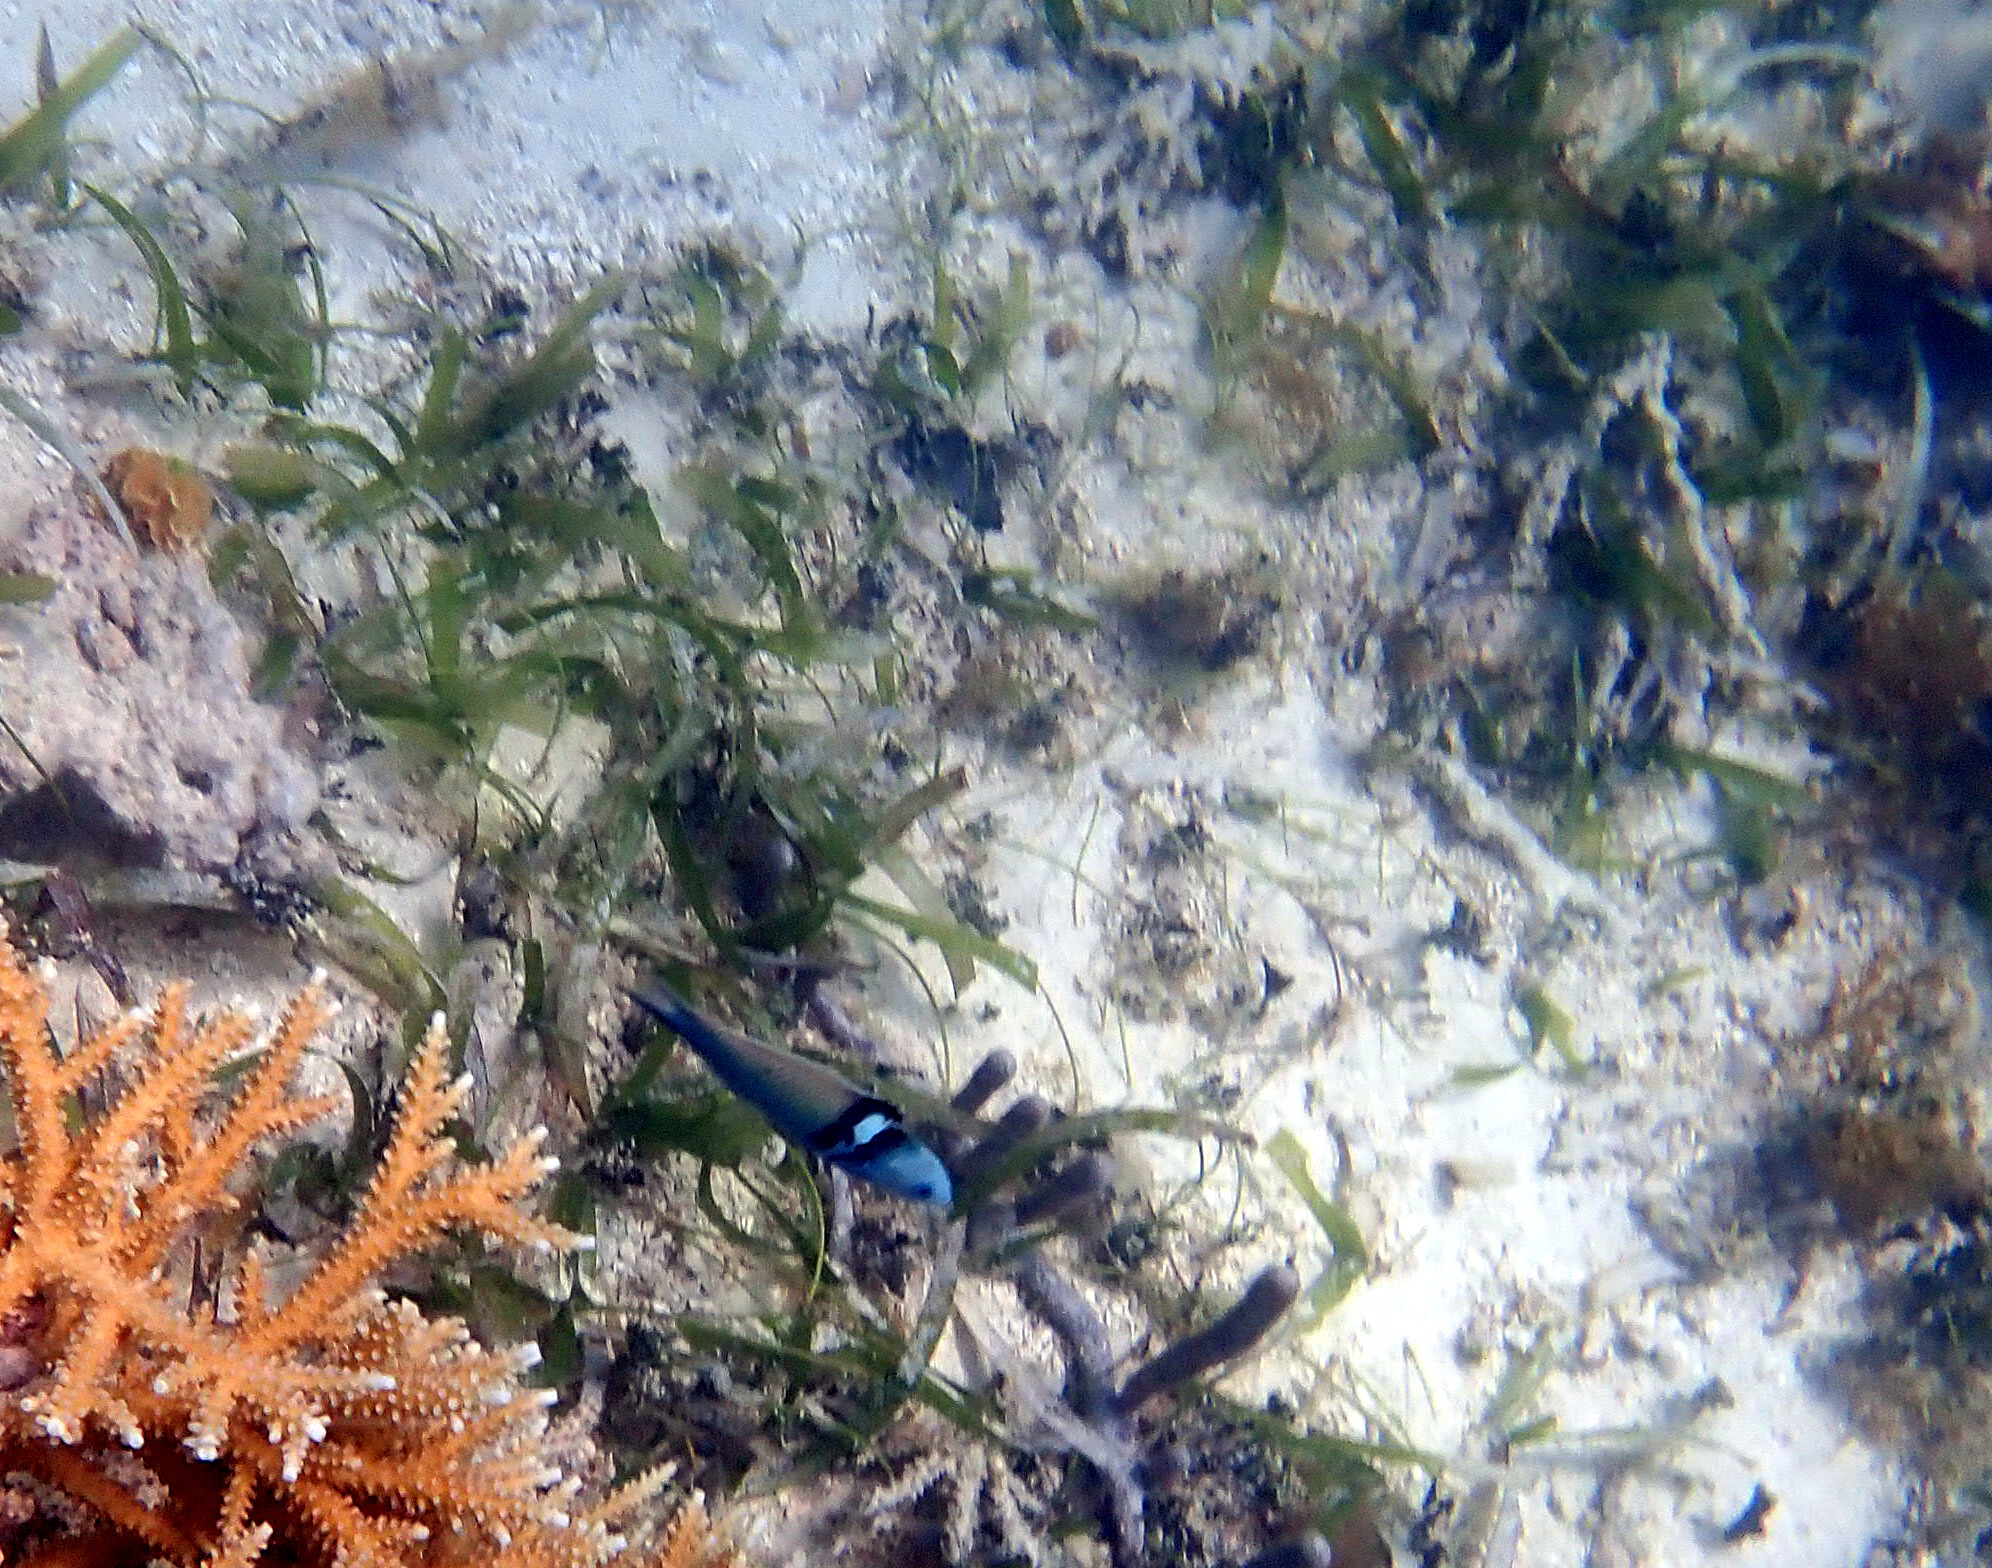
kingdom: Plantae
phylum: Tracheophyta
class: Liliopsida
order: Alismatales
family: Cymodoceaceae
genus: Syringodium
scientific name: Syringodium filiforme
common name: Manatee grass
